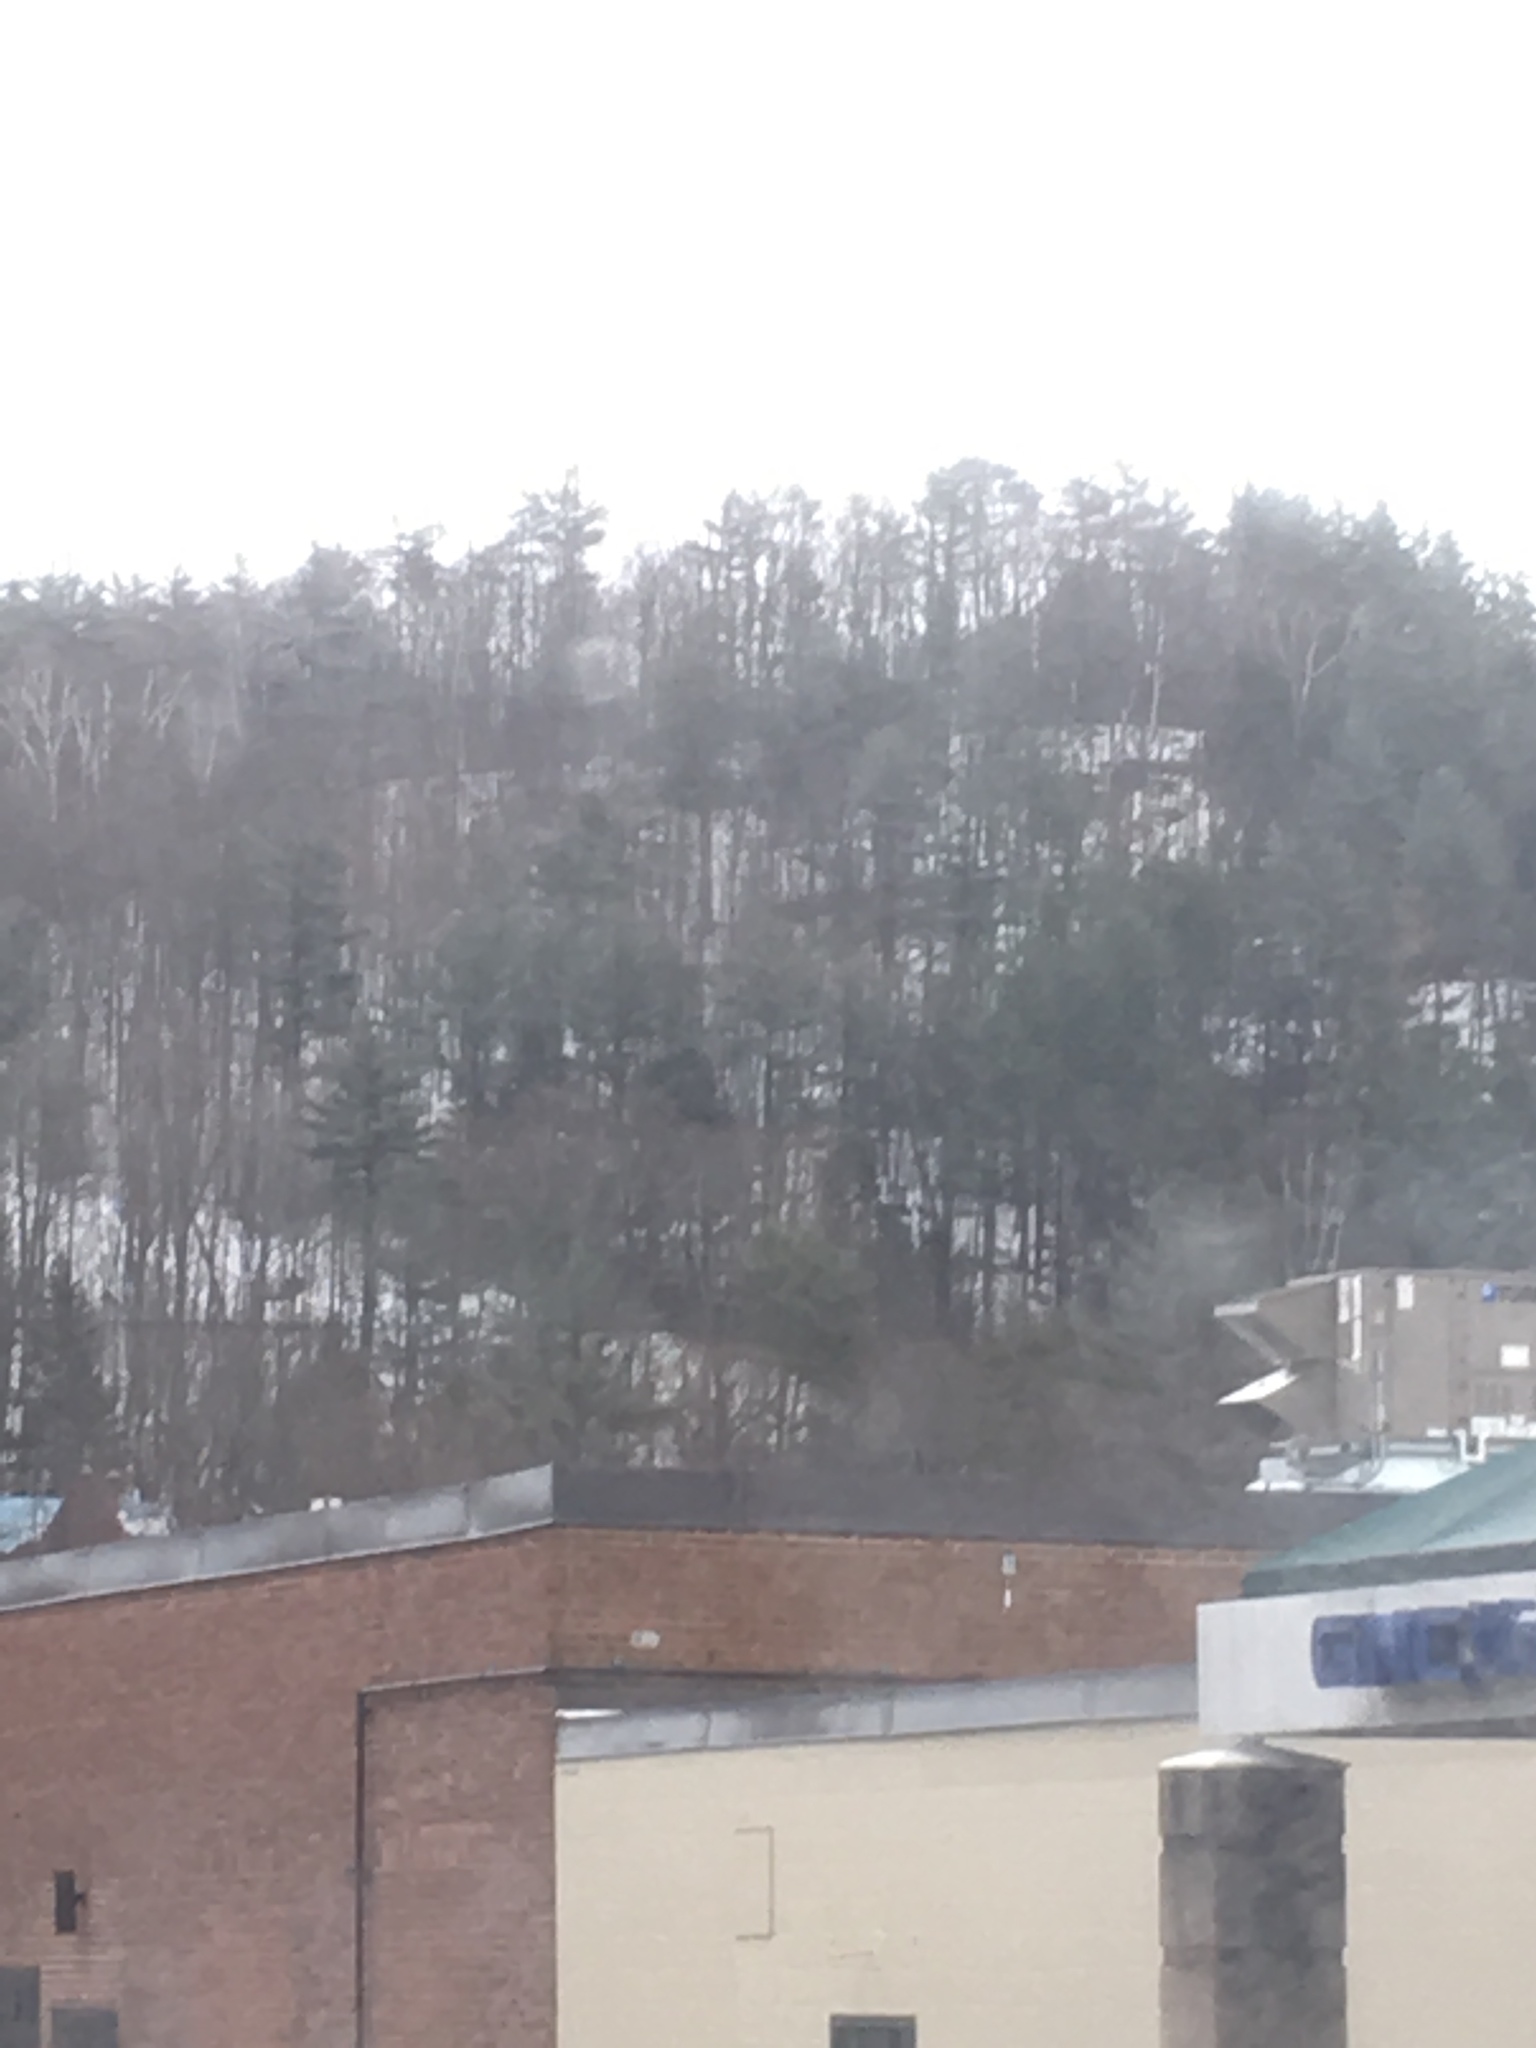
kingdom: Plantae
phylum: Tracheophyta
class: Pinopsida
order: Pinales
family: Pinaceae
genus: Pinus
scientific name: Pinus strobus
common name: Weymouth pine
